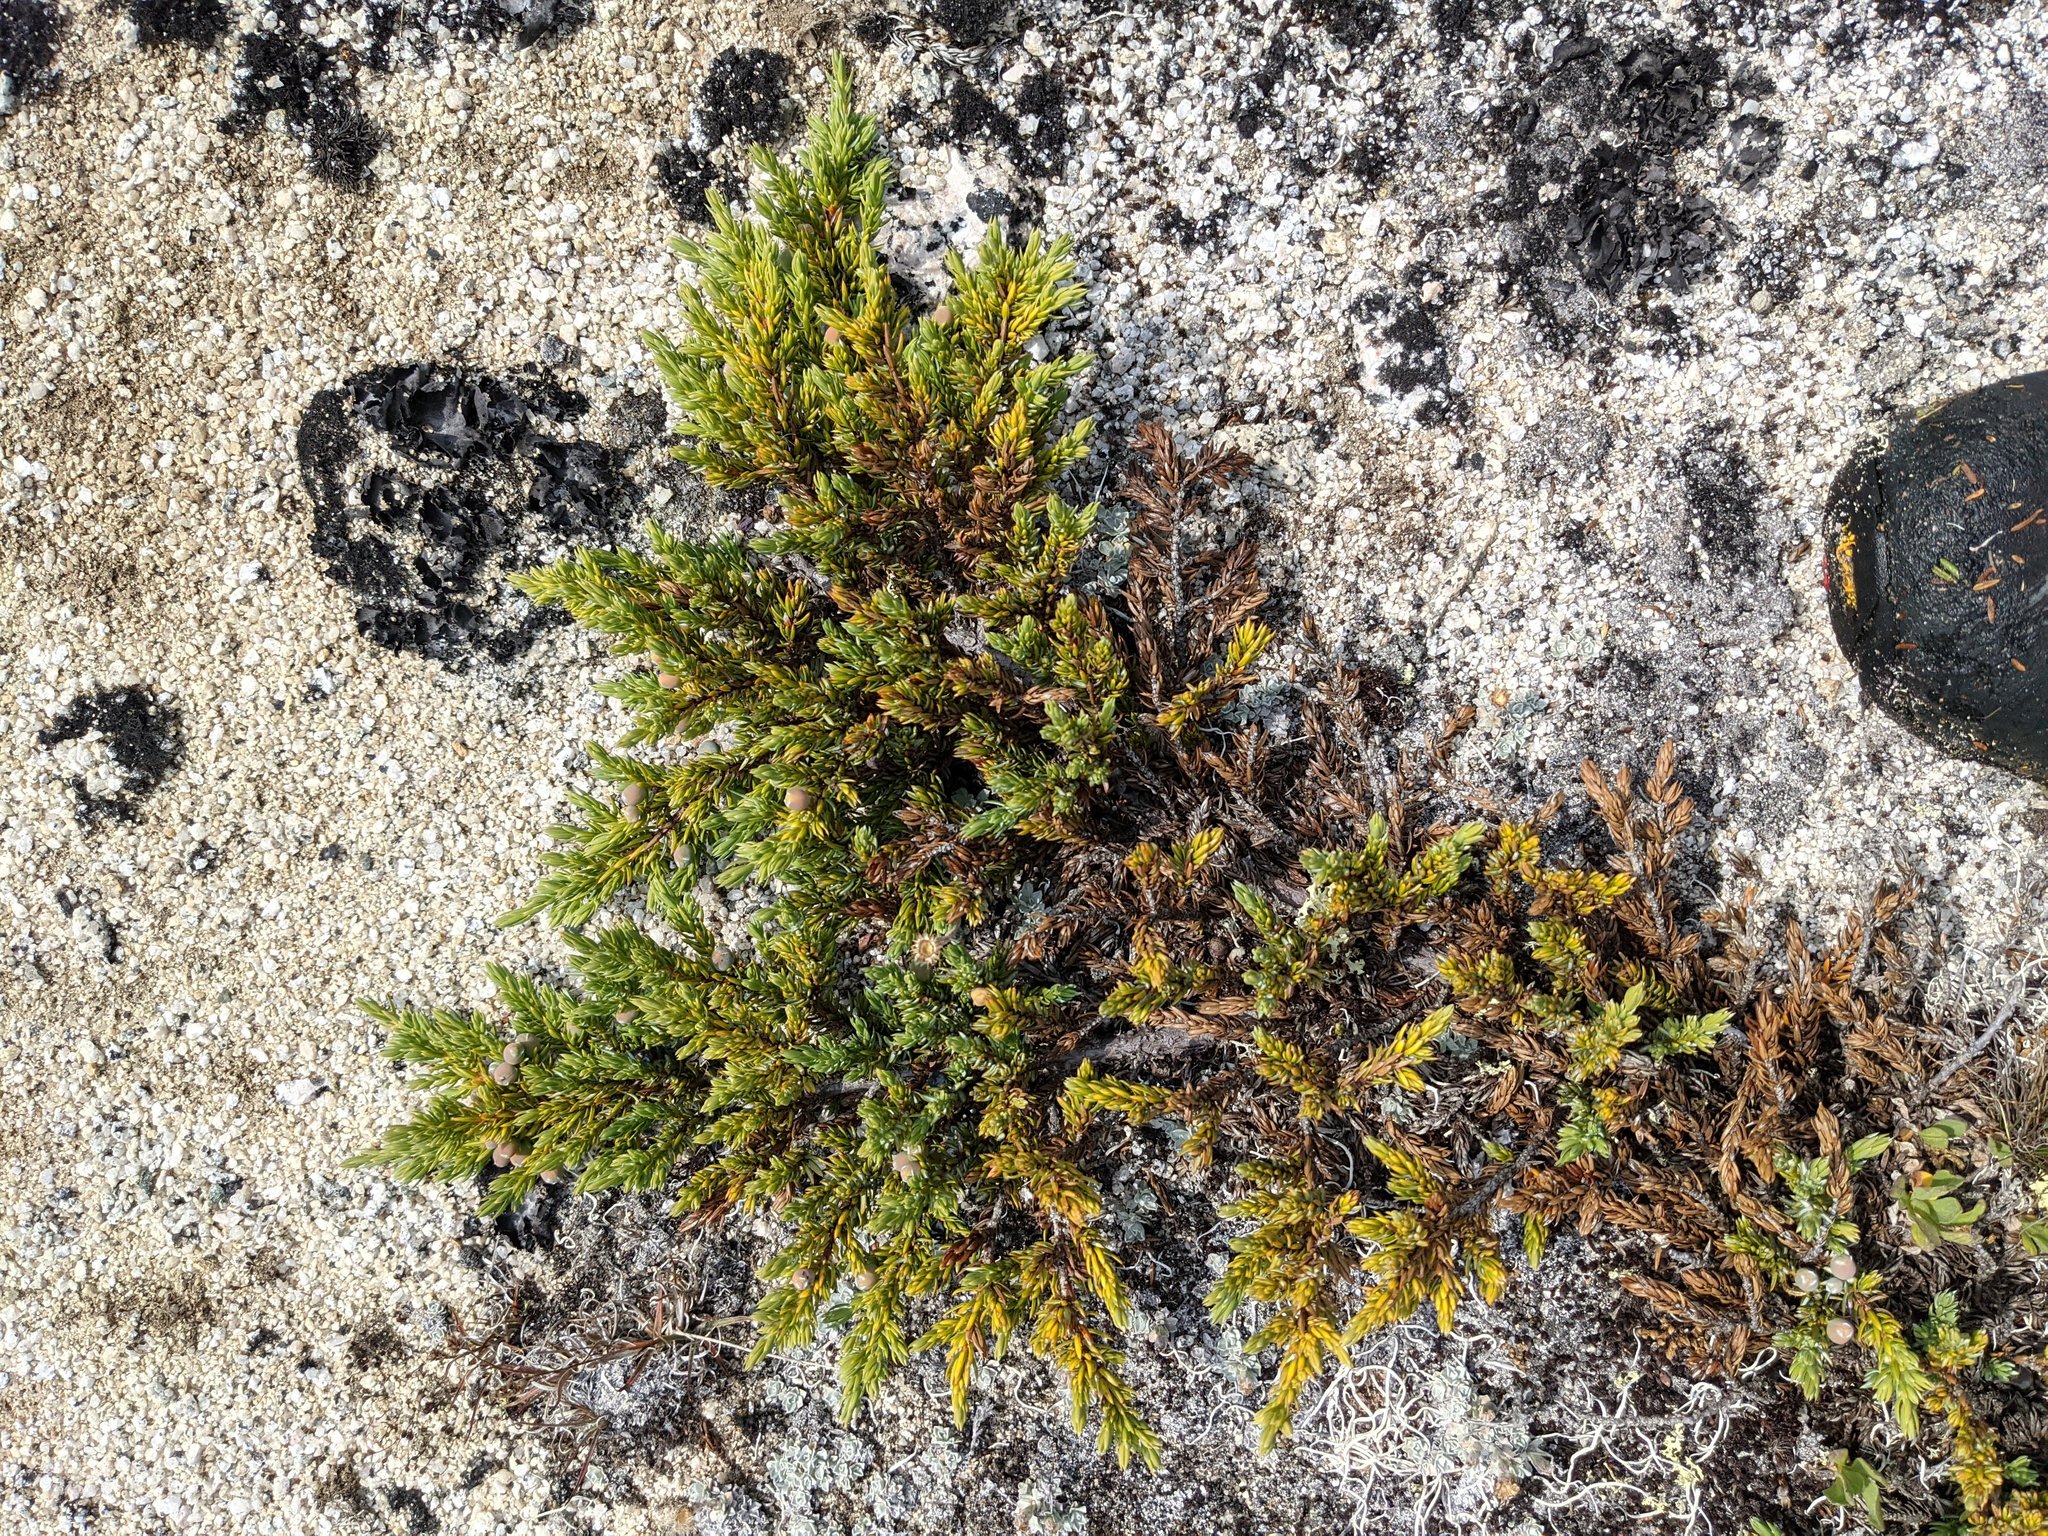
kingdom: Plantae
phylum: Tracheophyta
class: Pinopsida
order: Pinales
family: Cupressaceae
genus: Juniperus
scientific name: Juniperus communis
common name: Common juniper
